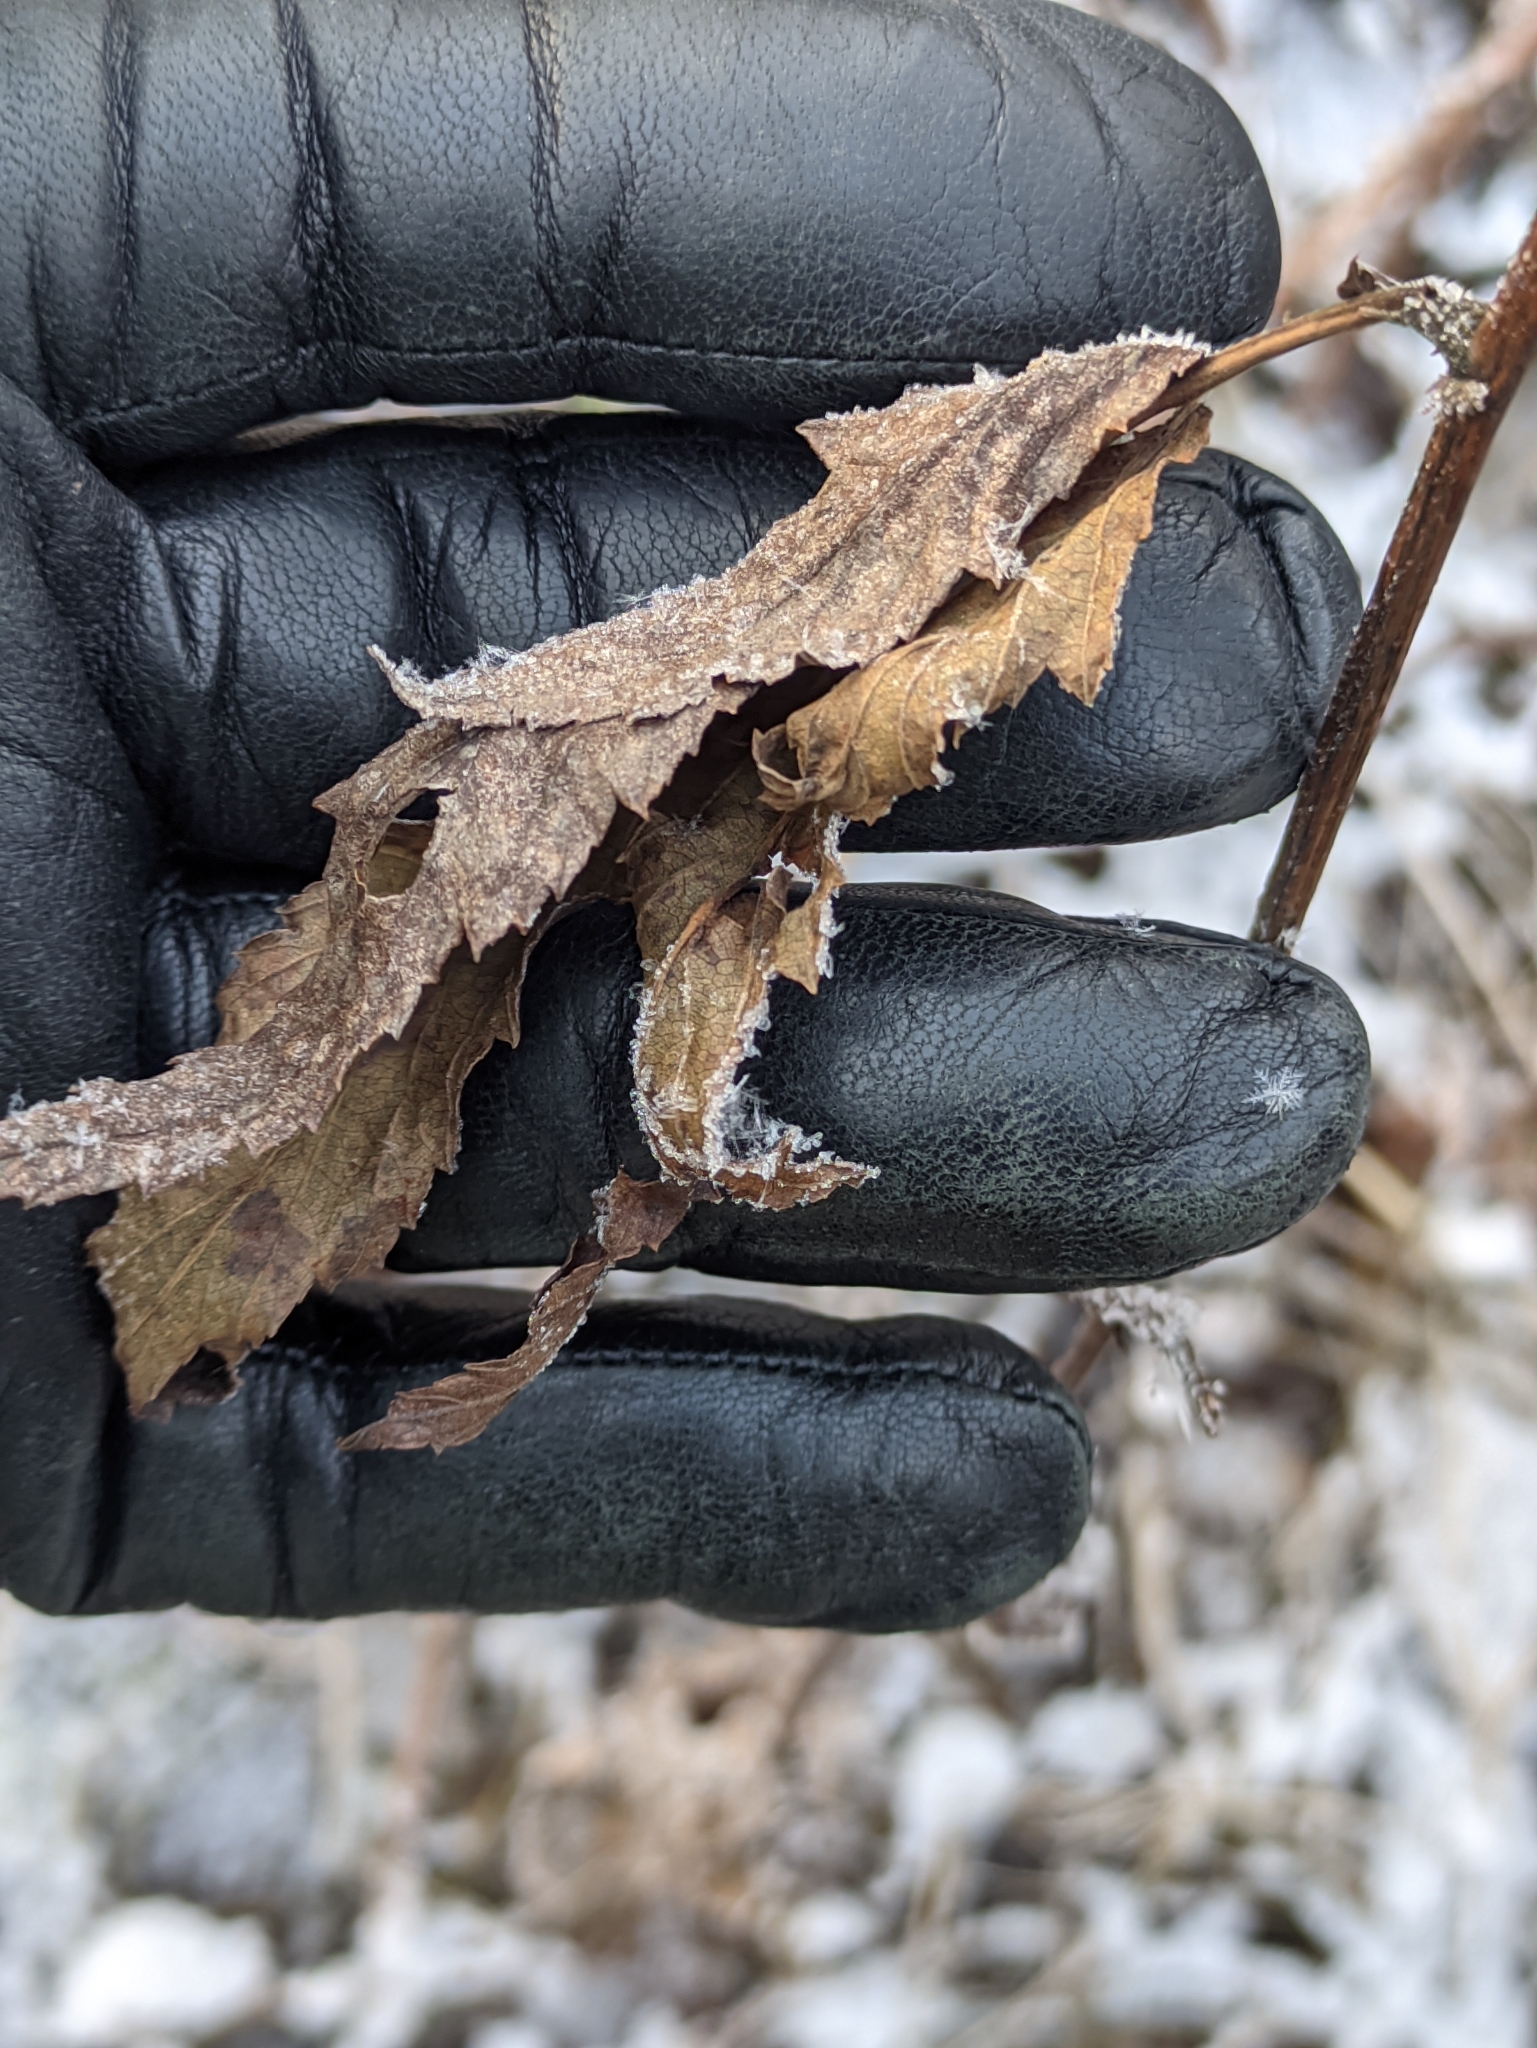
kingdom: Plantae
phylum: Tracheophyta
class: Magnoliopsida
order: Rosales
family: Rosaceae
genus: Filipendula
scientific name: Filipendula ulmaria
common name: Meadowsweet
